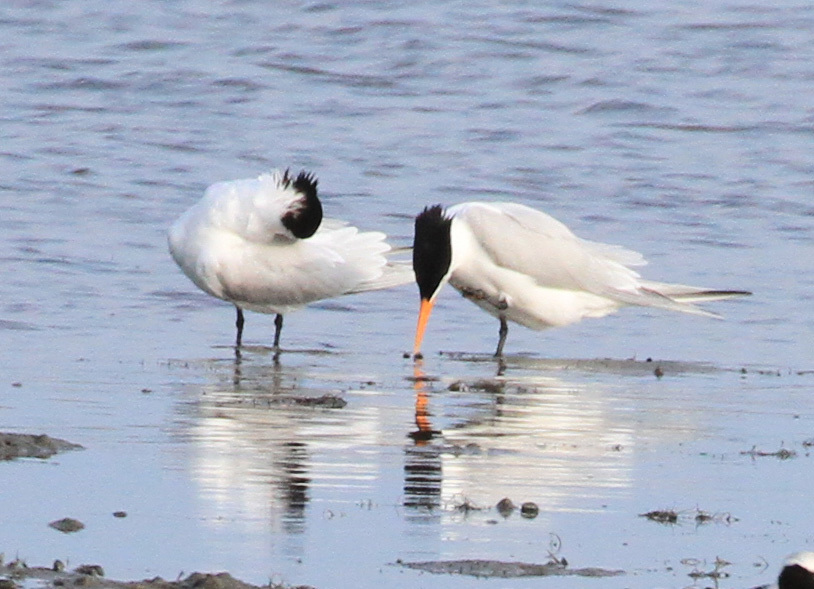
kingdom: Animalia
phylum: Chordata
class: Aves
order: Charadriiformes
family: Laridae
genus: Thalasseus
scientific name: Thalasseus maximus
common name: Royal tern
